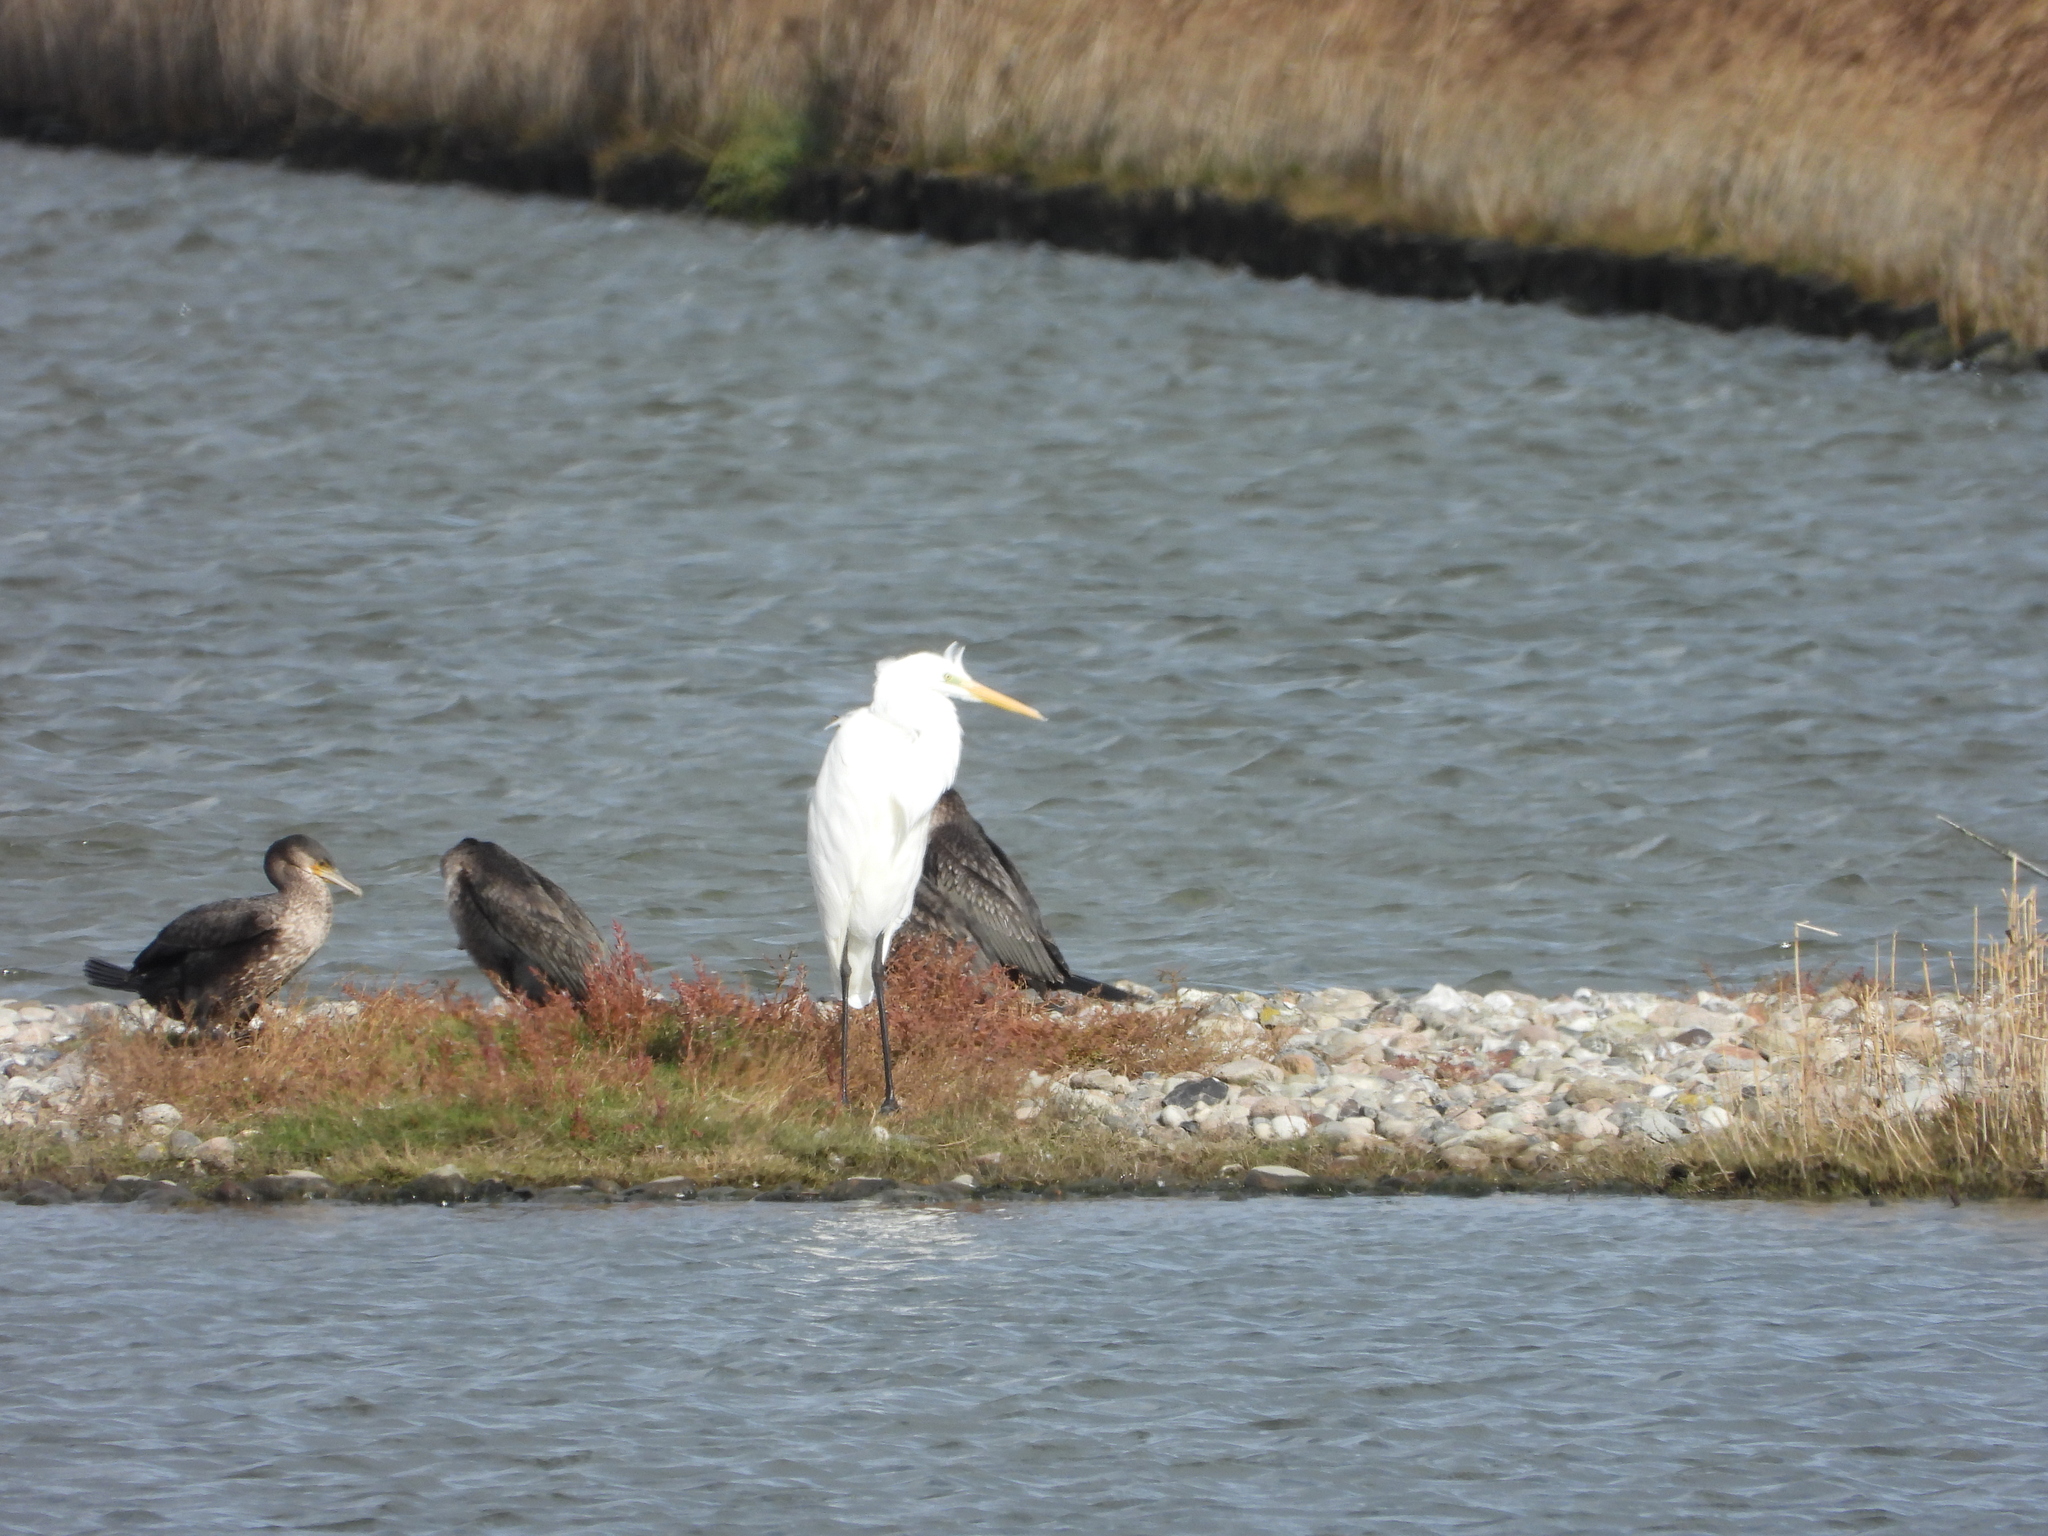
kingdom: Animalia
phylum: Chordata
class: Aves
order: Pelecaniformes
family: Ardeidae
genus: Ardea
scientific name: Ardea alba
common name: Great egret
